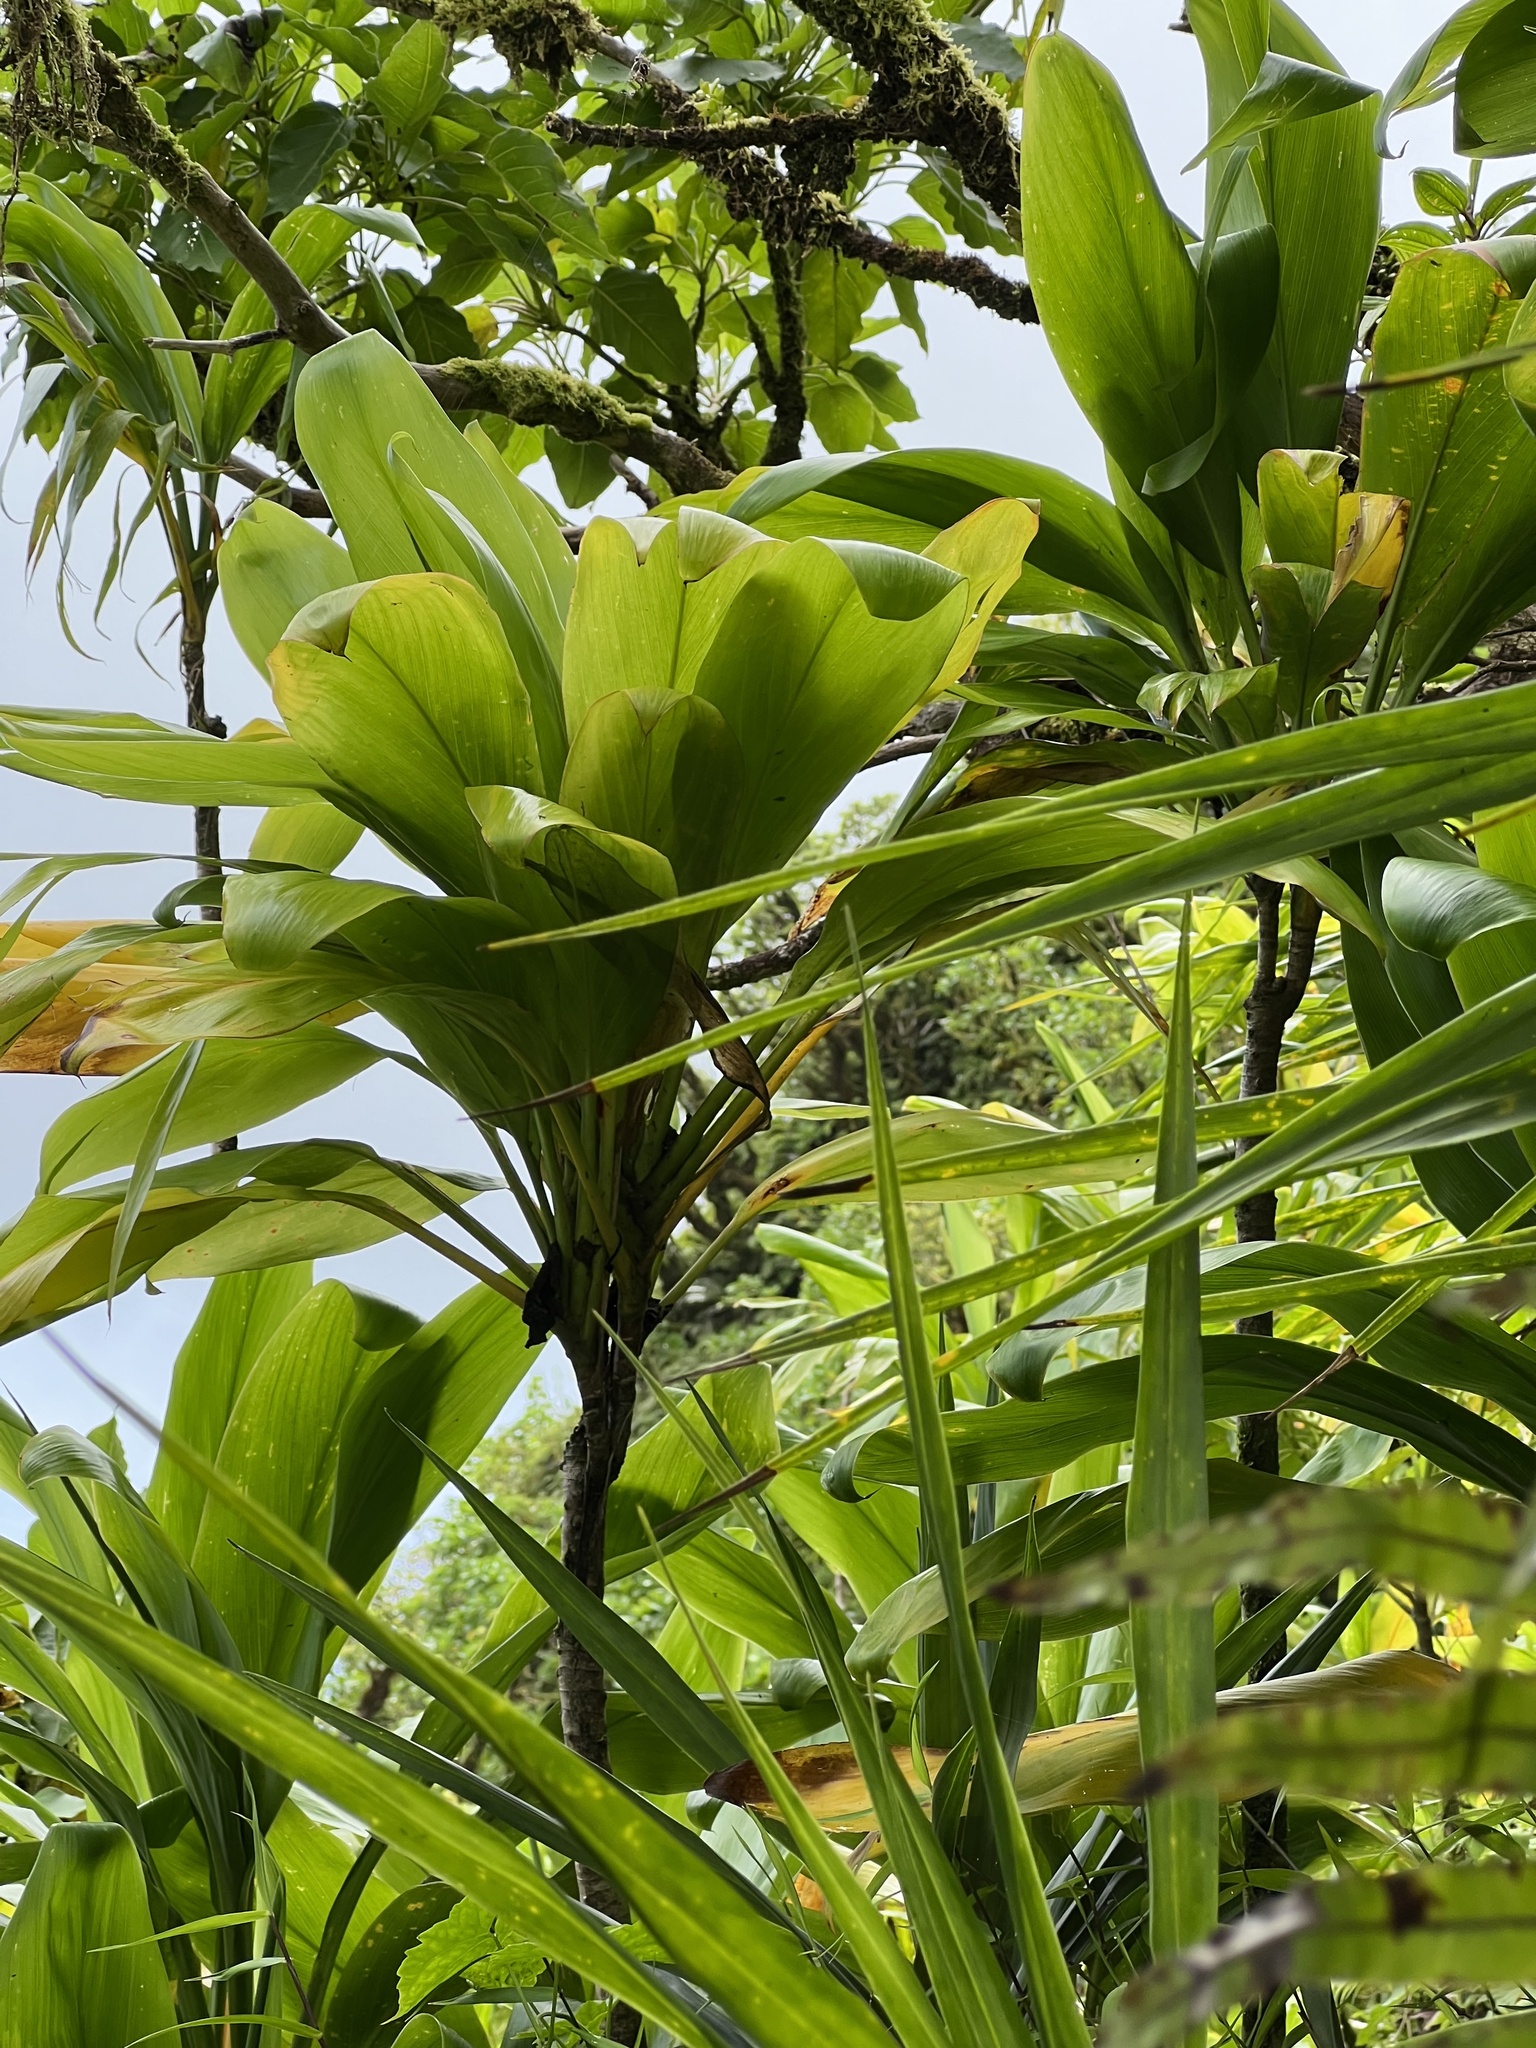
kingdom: Plantae
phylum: Tracheophyta
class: Liliopsida
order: Asparagales
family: Asparagaceae
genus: Cordyline
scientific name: Cordyline fruticosa
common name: Good-luck-plant
